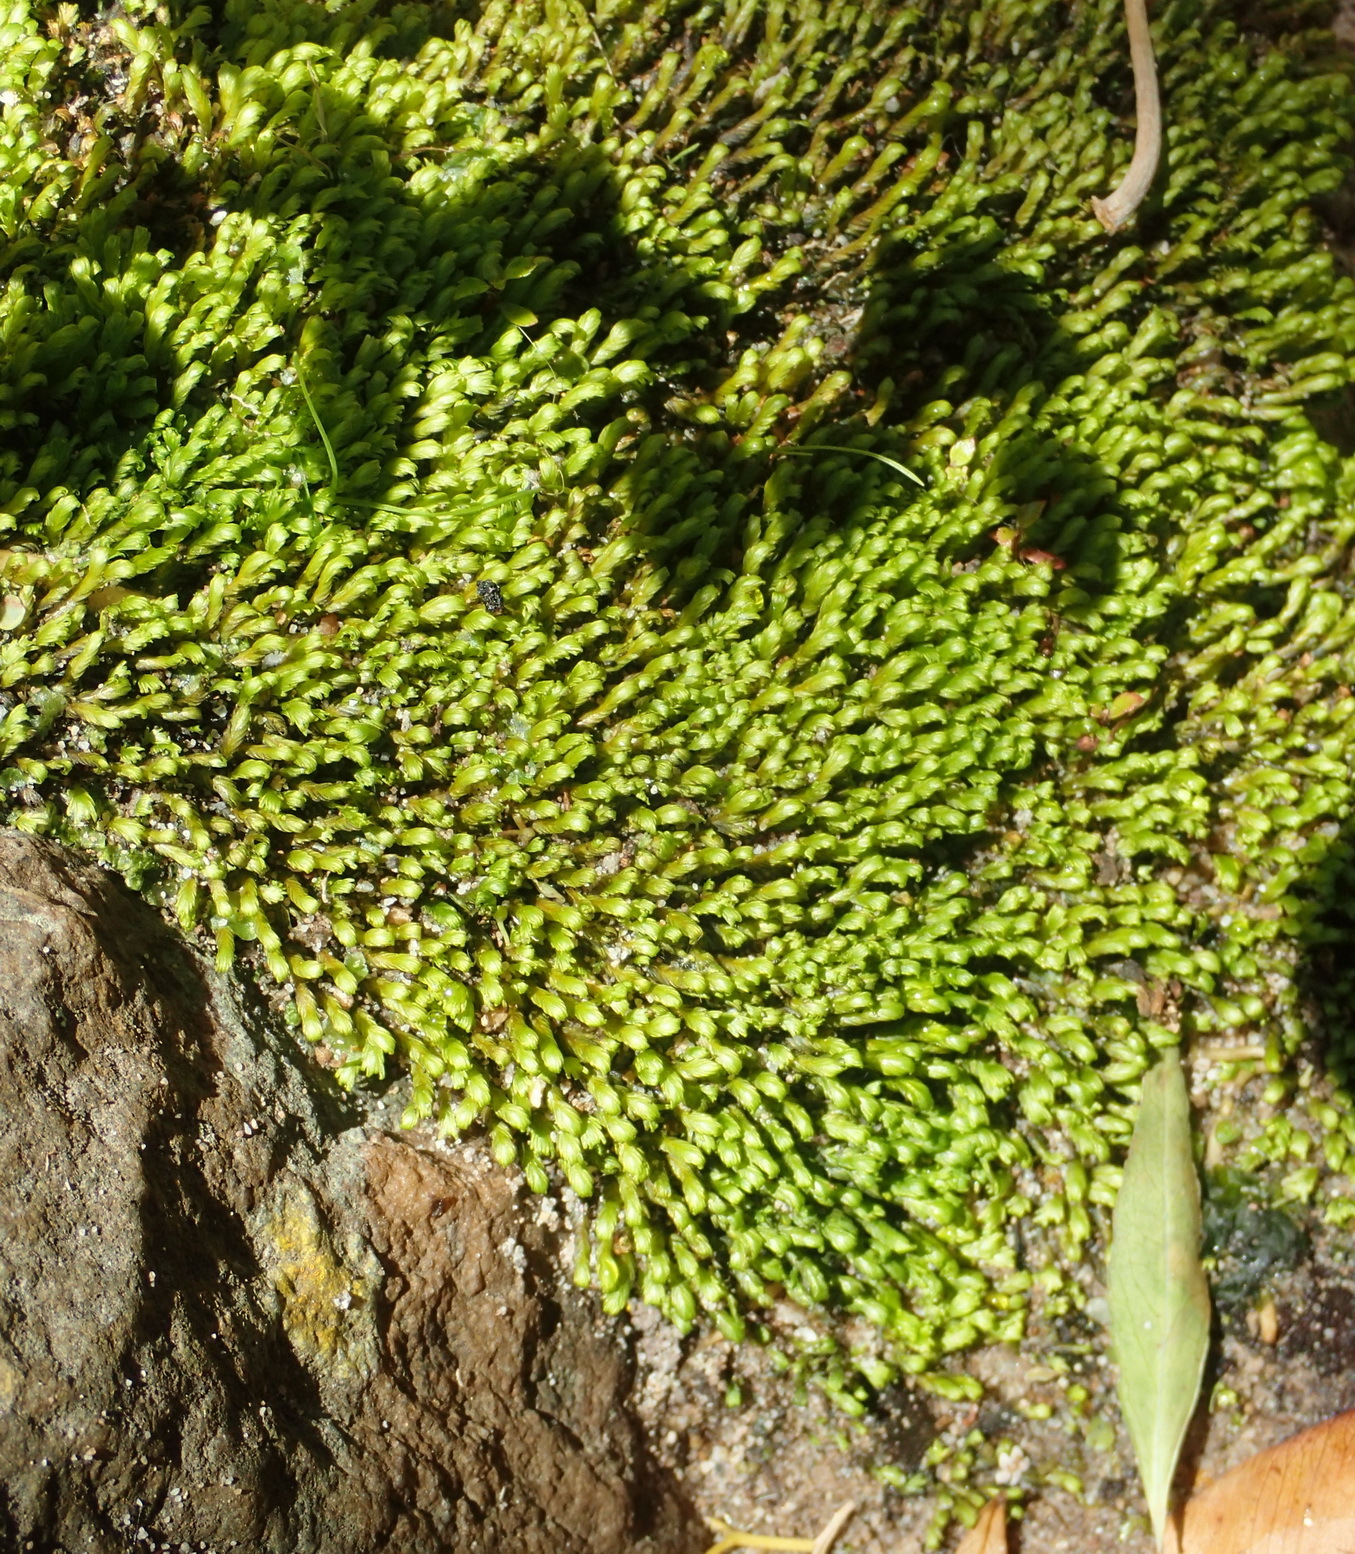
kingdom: Plantae
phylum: Bryophyta
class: Bryopsida
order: Dicranales
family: Fissidentaceae
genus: Fissidens
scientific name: Fissidens megalotis
